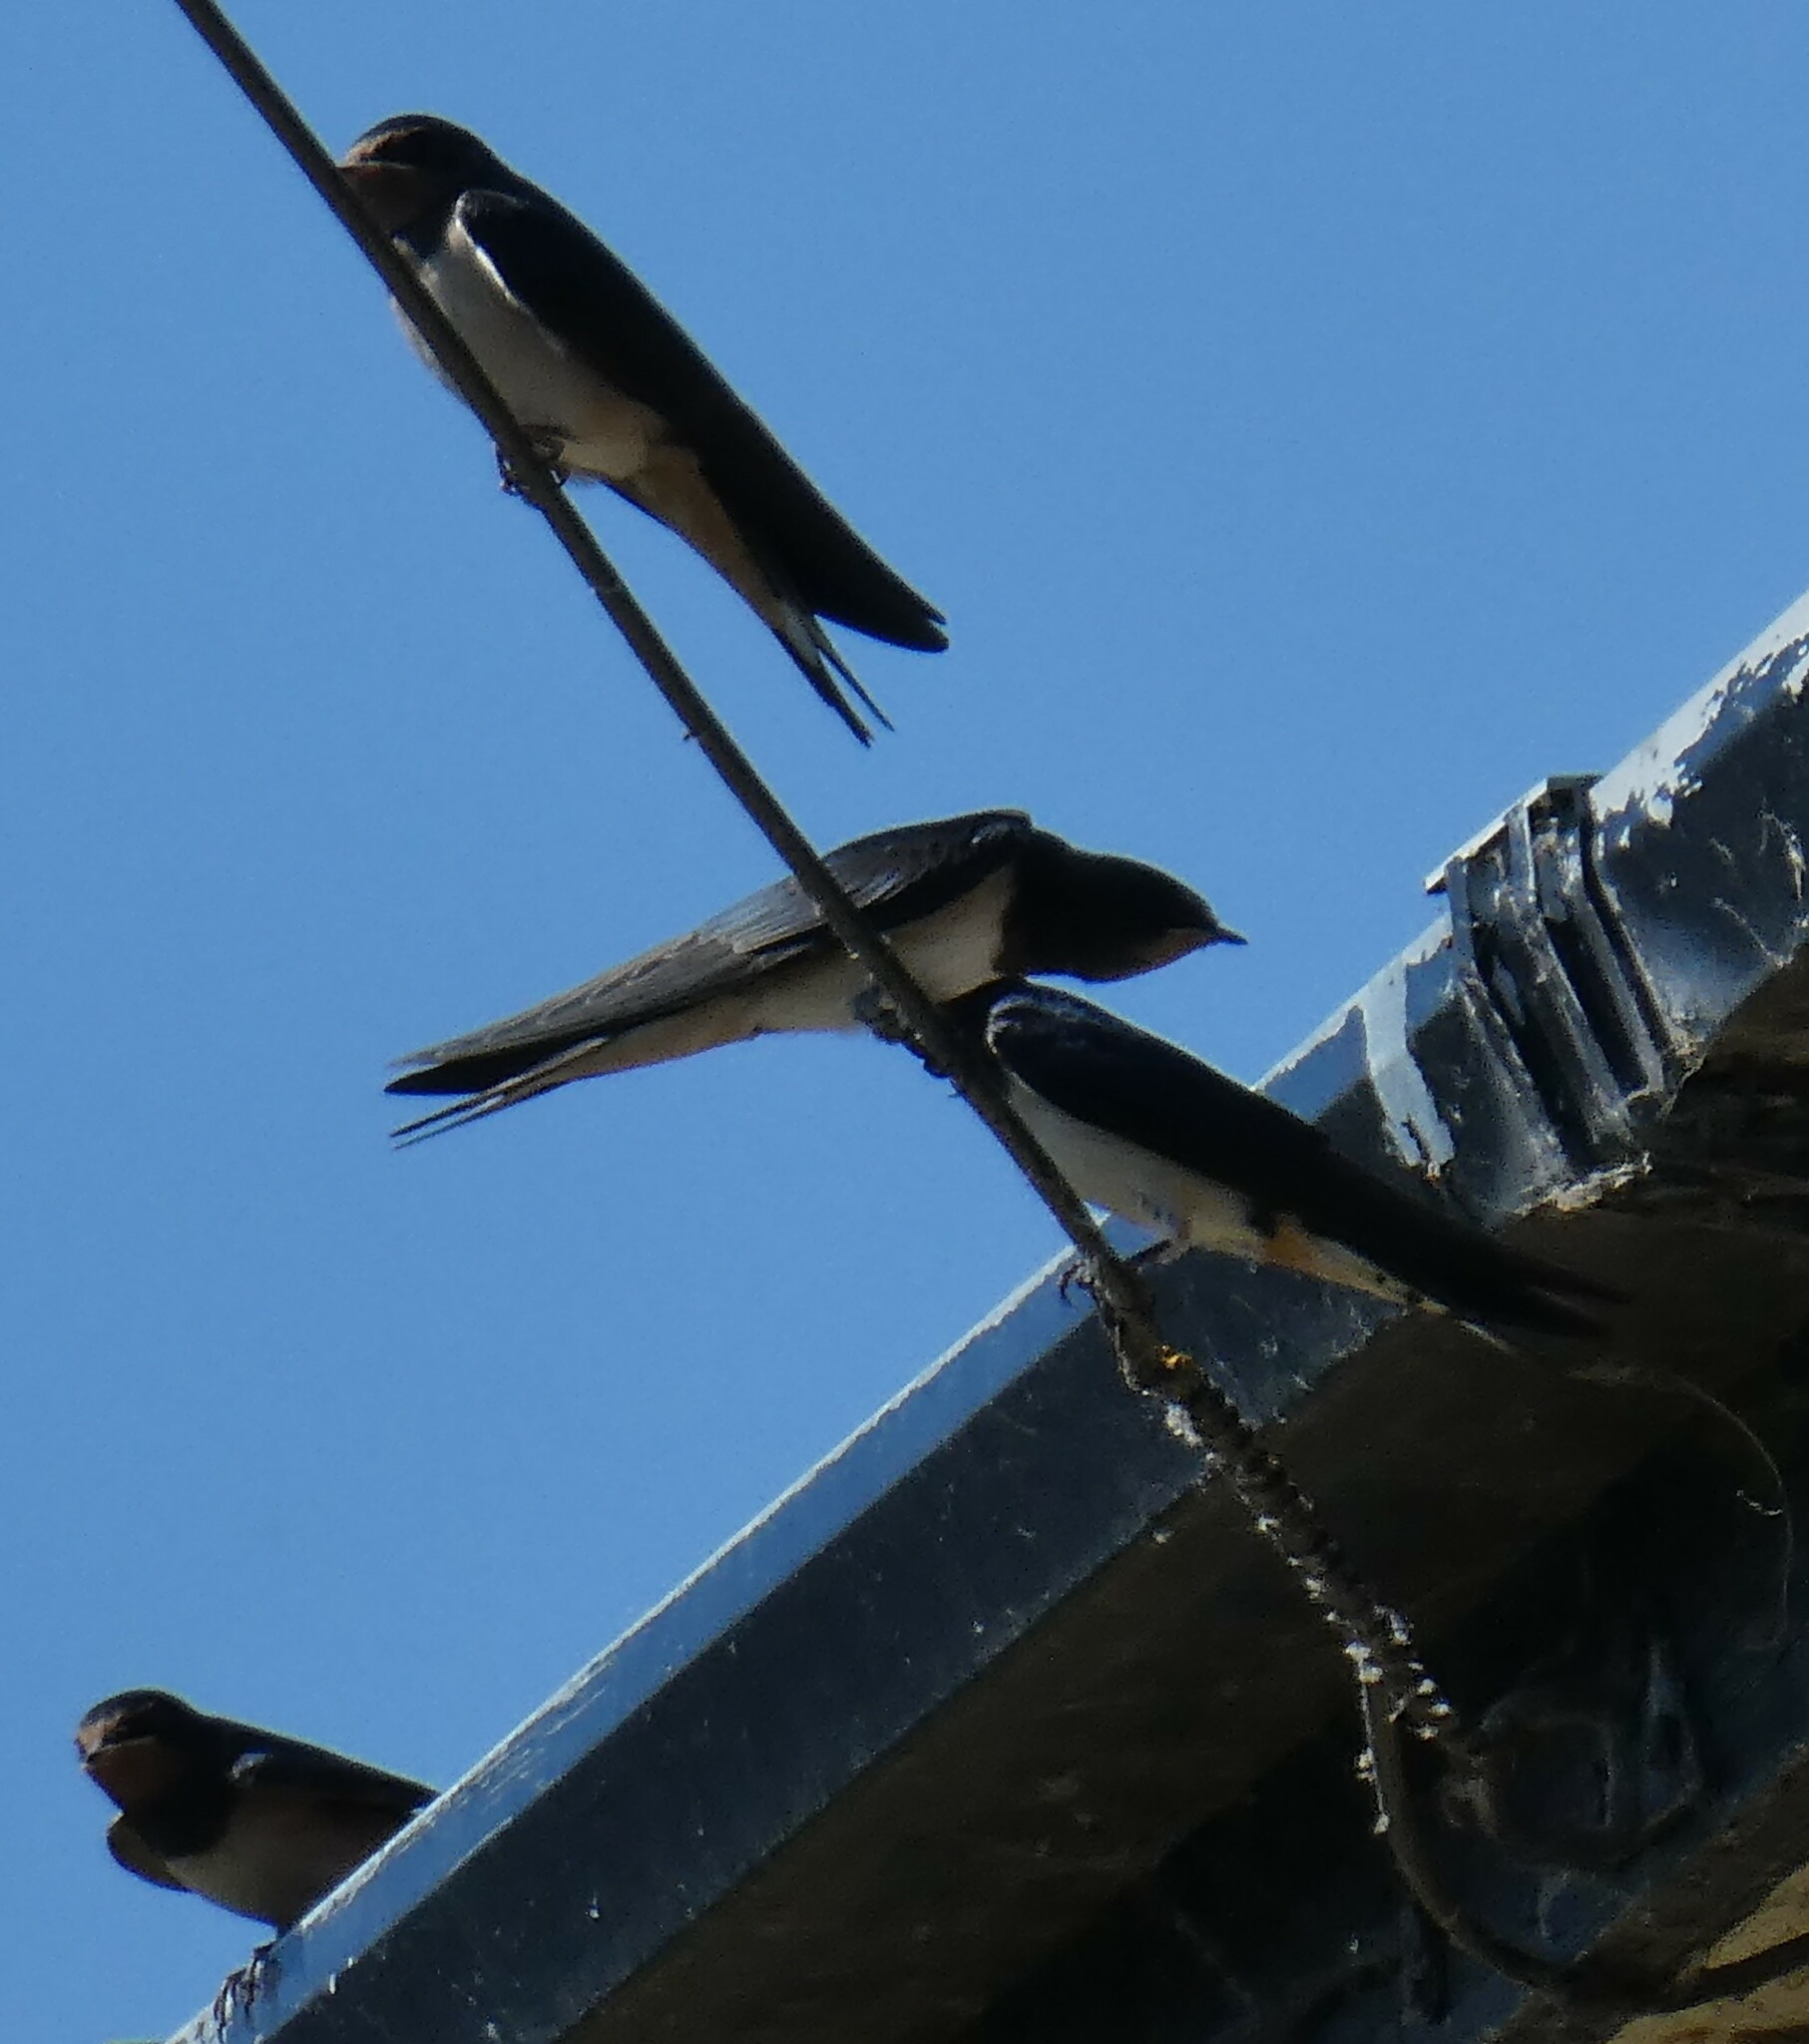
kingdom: Animalia
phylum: Chordata
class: Aves
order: Passeriformes
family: Hirundinidae
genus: Hirundo
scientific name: Hirundo rustica
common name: Barn swallow
